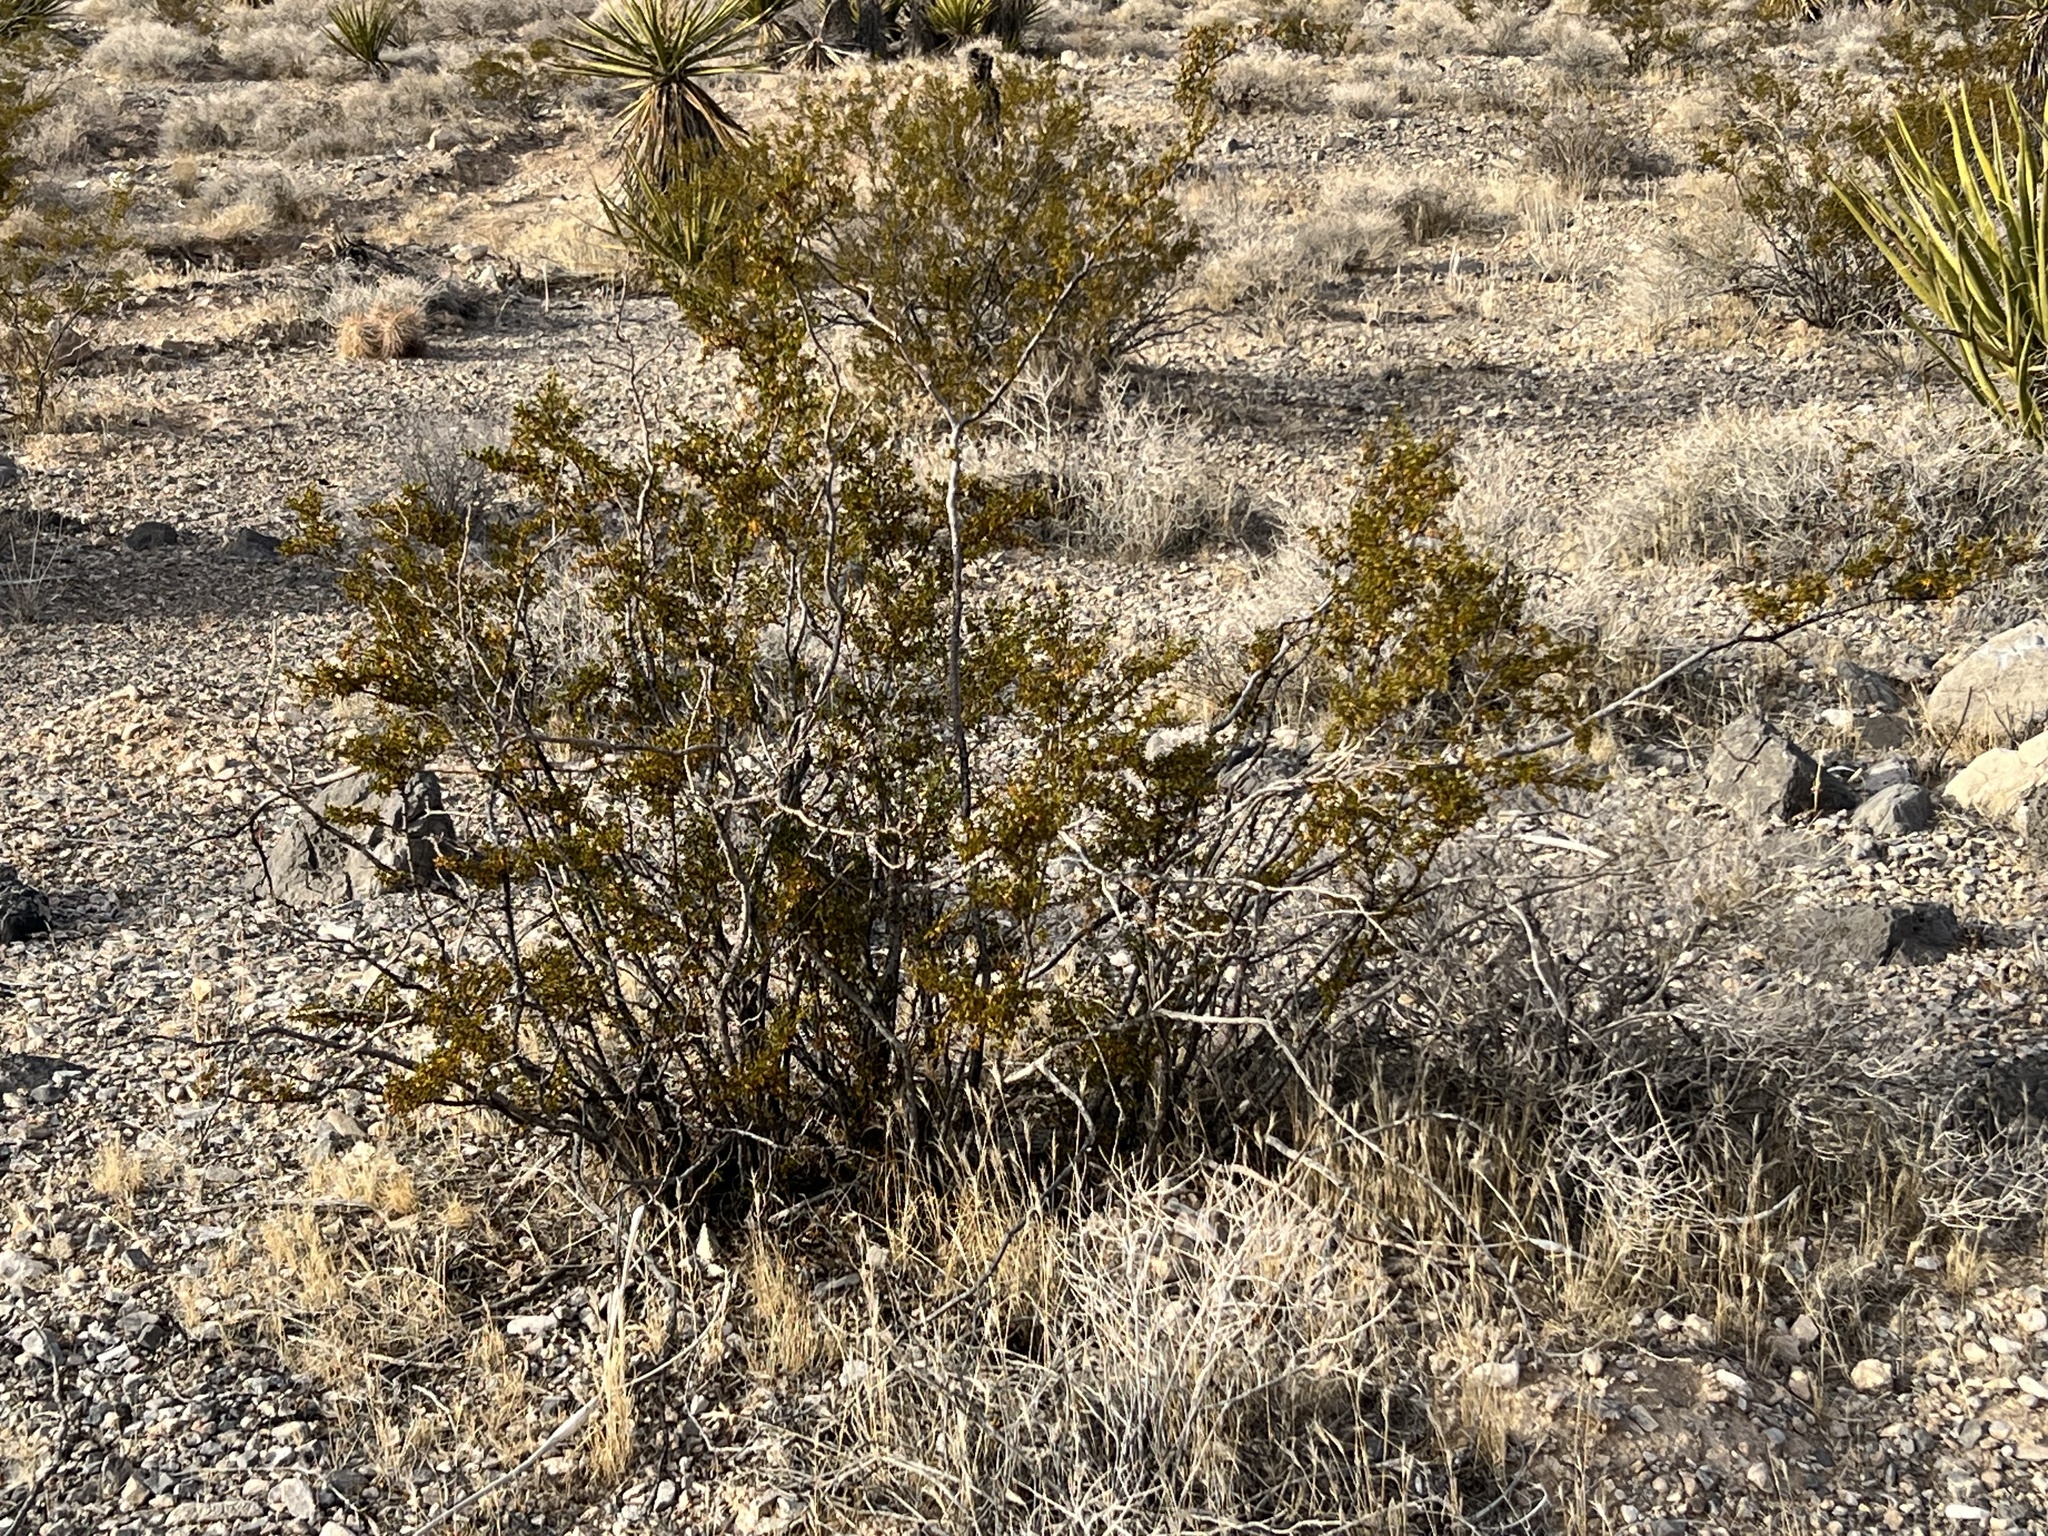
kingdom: Plantae
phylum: Tracheophyta
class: Magnoliopsida
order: Zygophyllales
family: Zygophyllaceae
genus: Larrea
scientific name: Larrea tridentata
